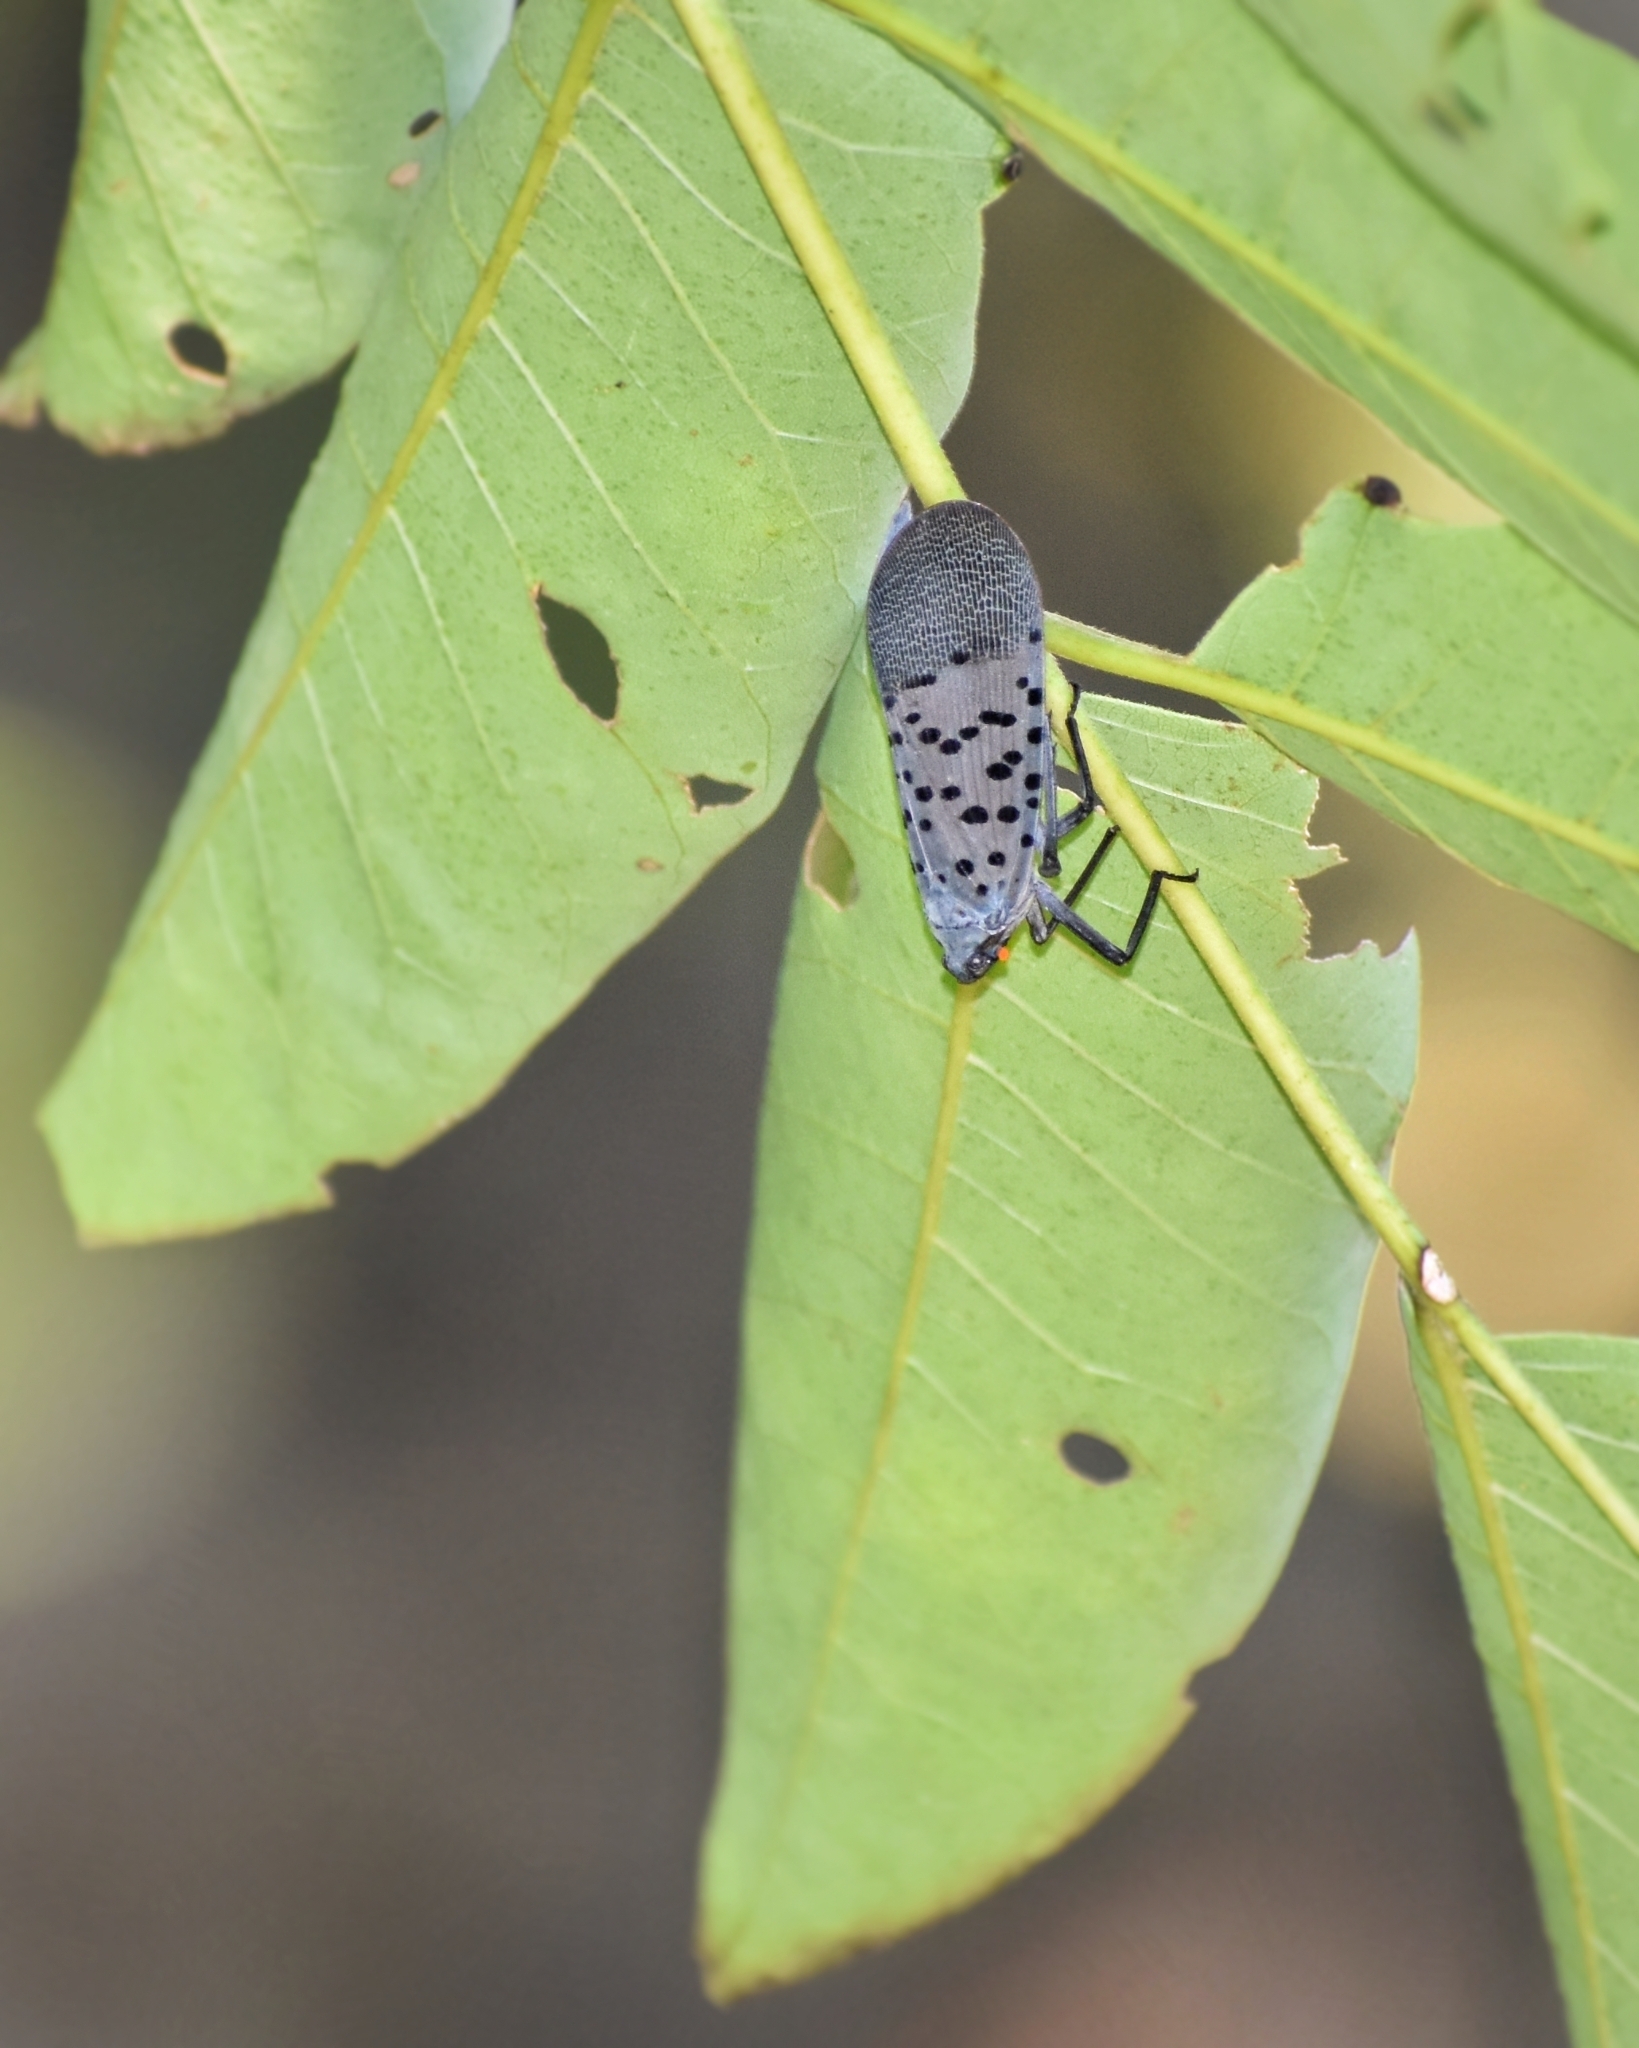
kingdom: Animalia
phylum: Arthropoda
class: Insecta
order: Hemiptera
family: Fulgoridae
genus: Lycorma
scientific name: Lycorma delicatula
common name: Spotted lanternfly
